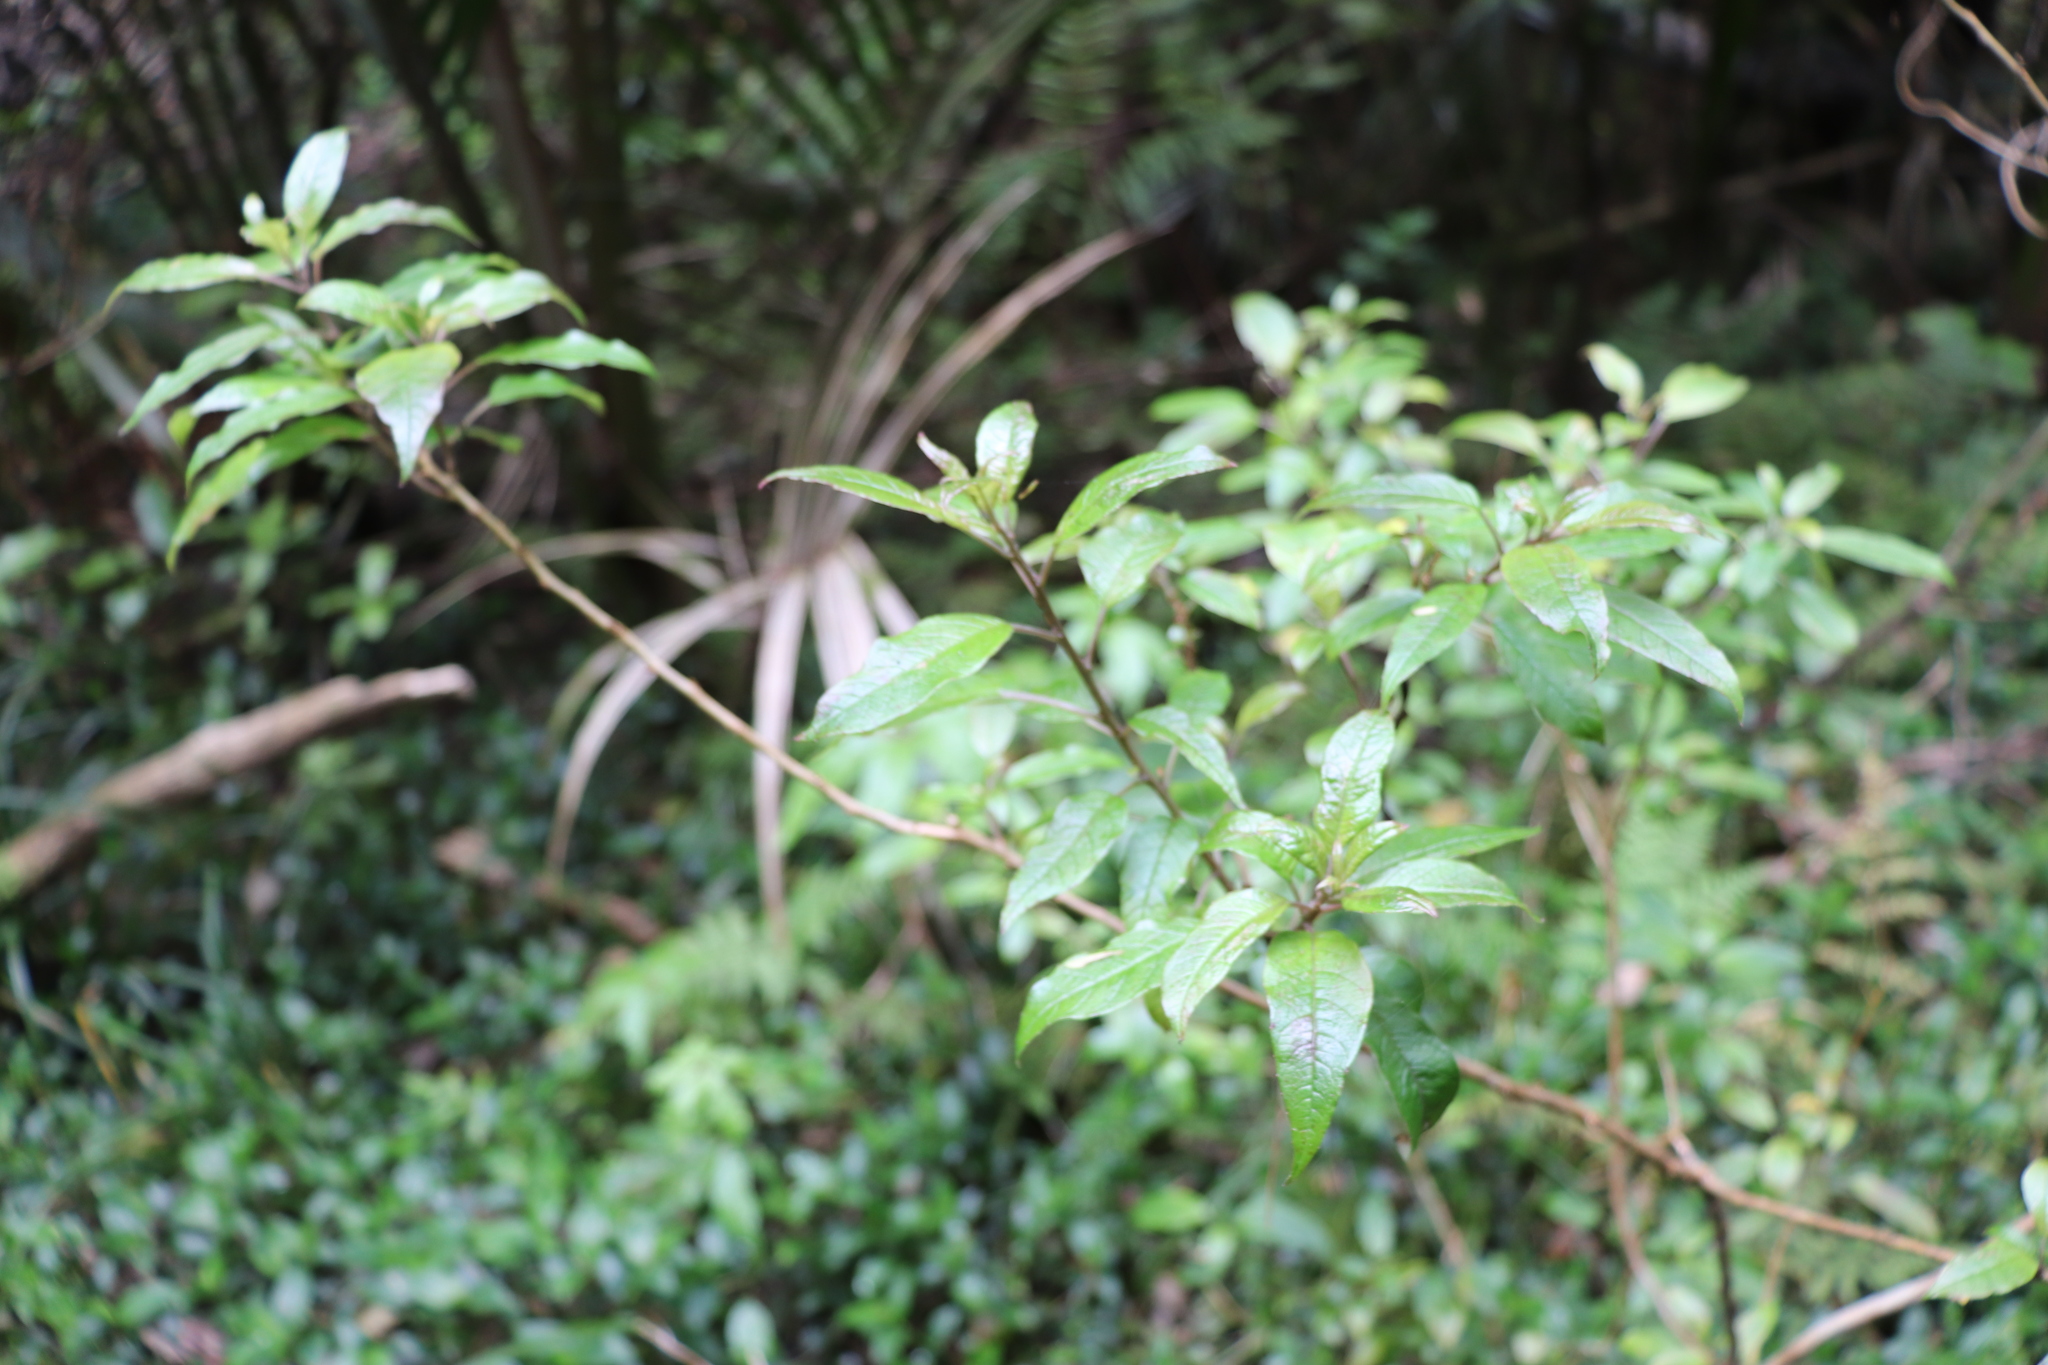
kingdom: Plantae
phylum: Tracheophyta
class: Magnoliopsida
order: Myrtales
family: Onagraceae
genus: Fuchsia
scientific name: Fuchsia excorticata
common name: Tree fuchsia
